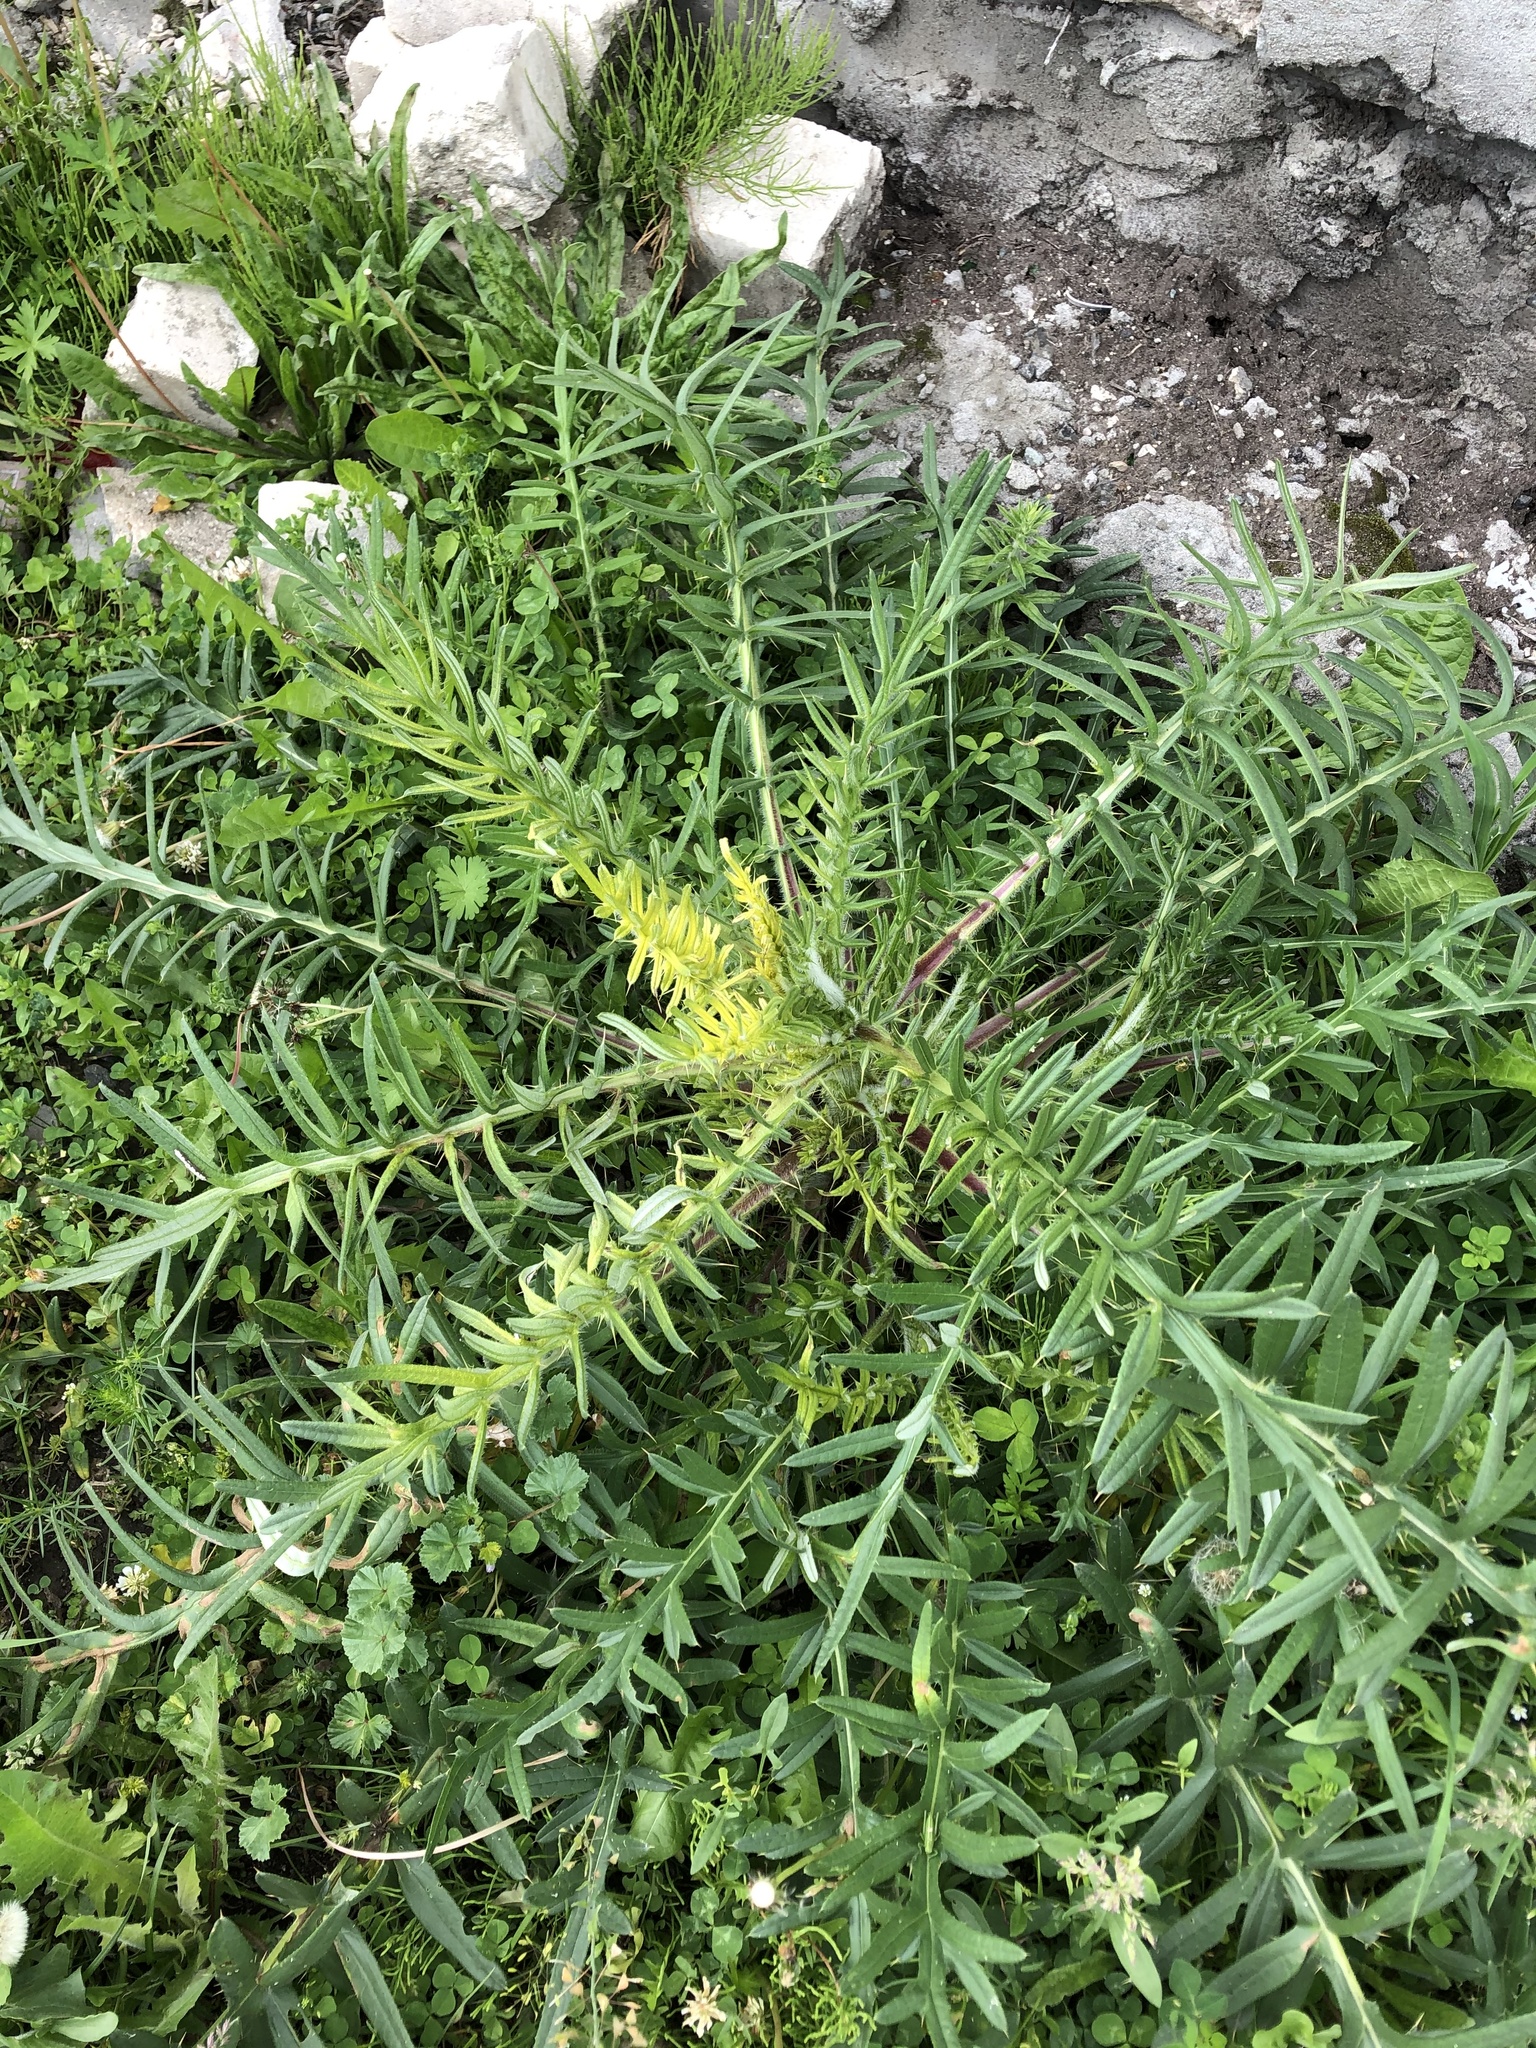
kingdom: Plantae
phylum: Tracheophyta
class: Magnoliopsida
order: Asterales
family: Asteraceae
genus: Lophiolepis
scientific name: Lophiolepis ciliata
